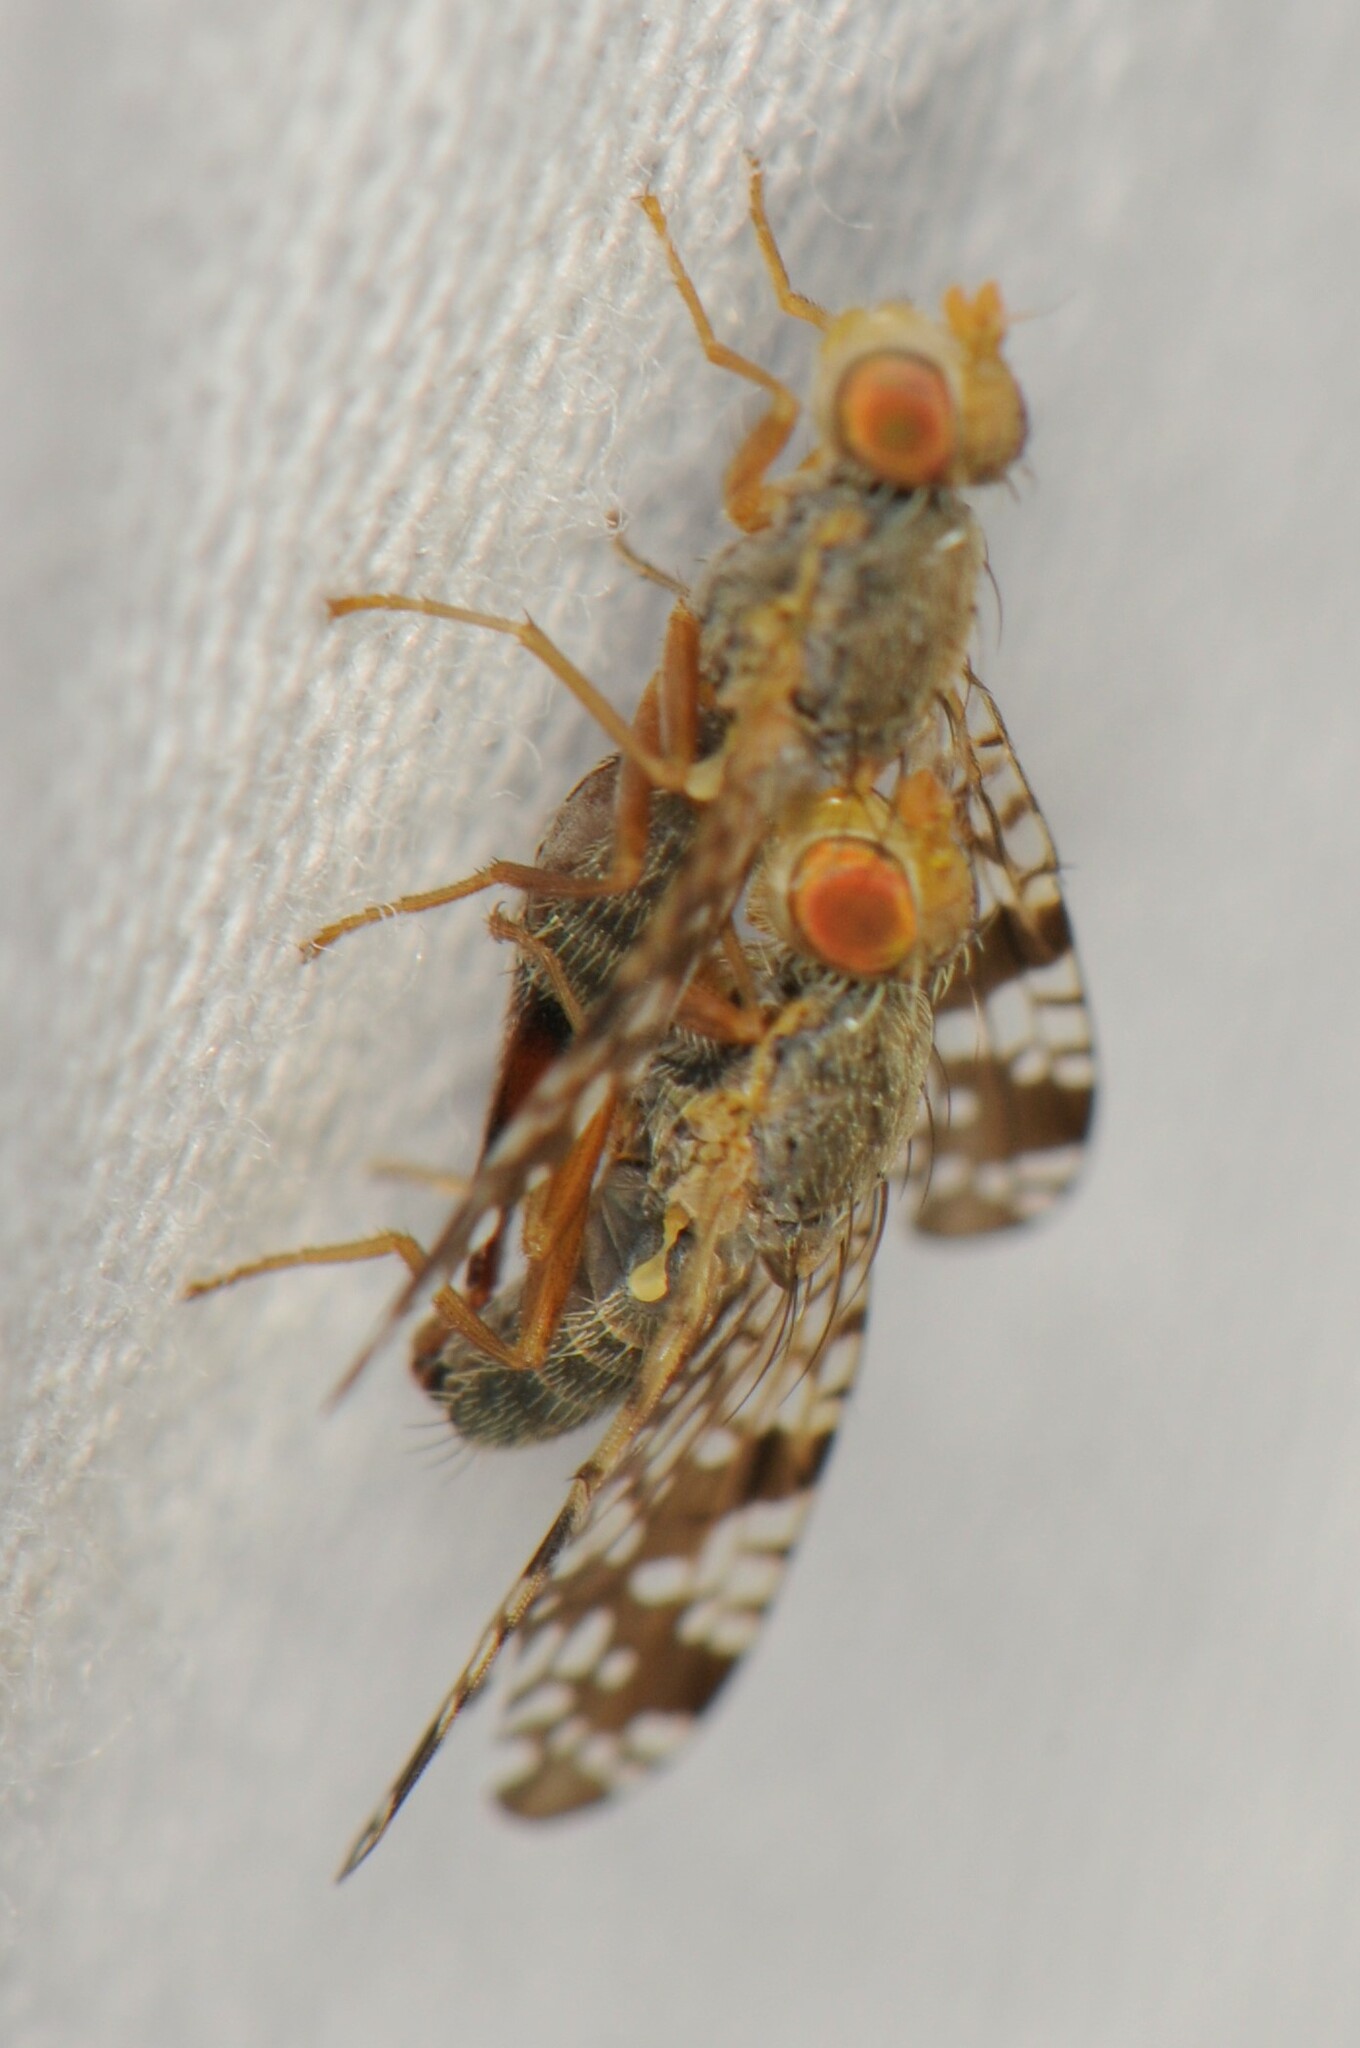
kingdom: Animalia
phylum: Arthropoda
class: Insecta
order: Diptera
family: Tephritidae
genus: Neotephritis
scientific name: Neotephritis finalis
